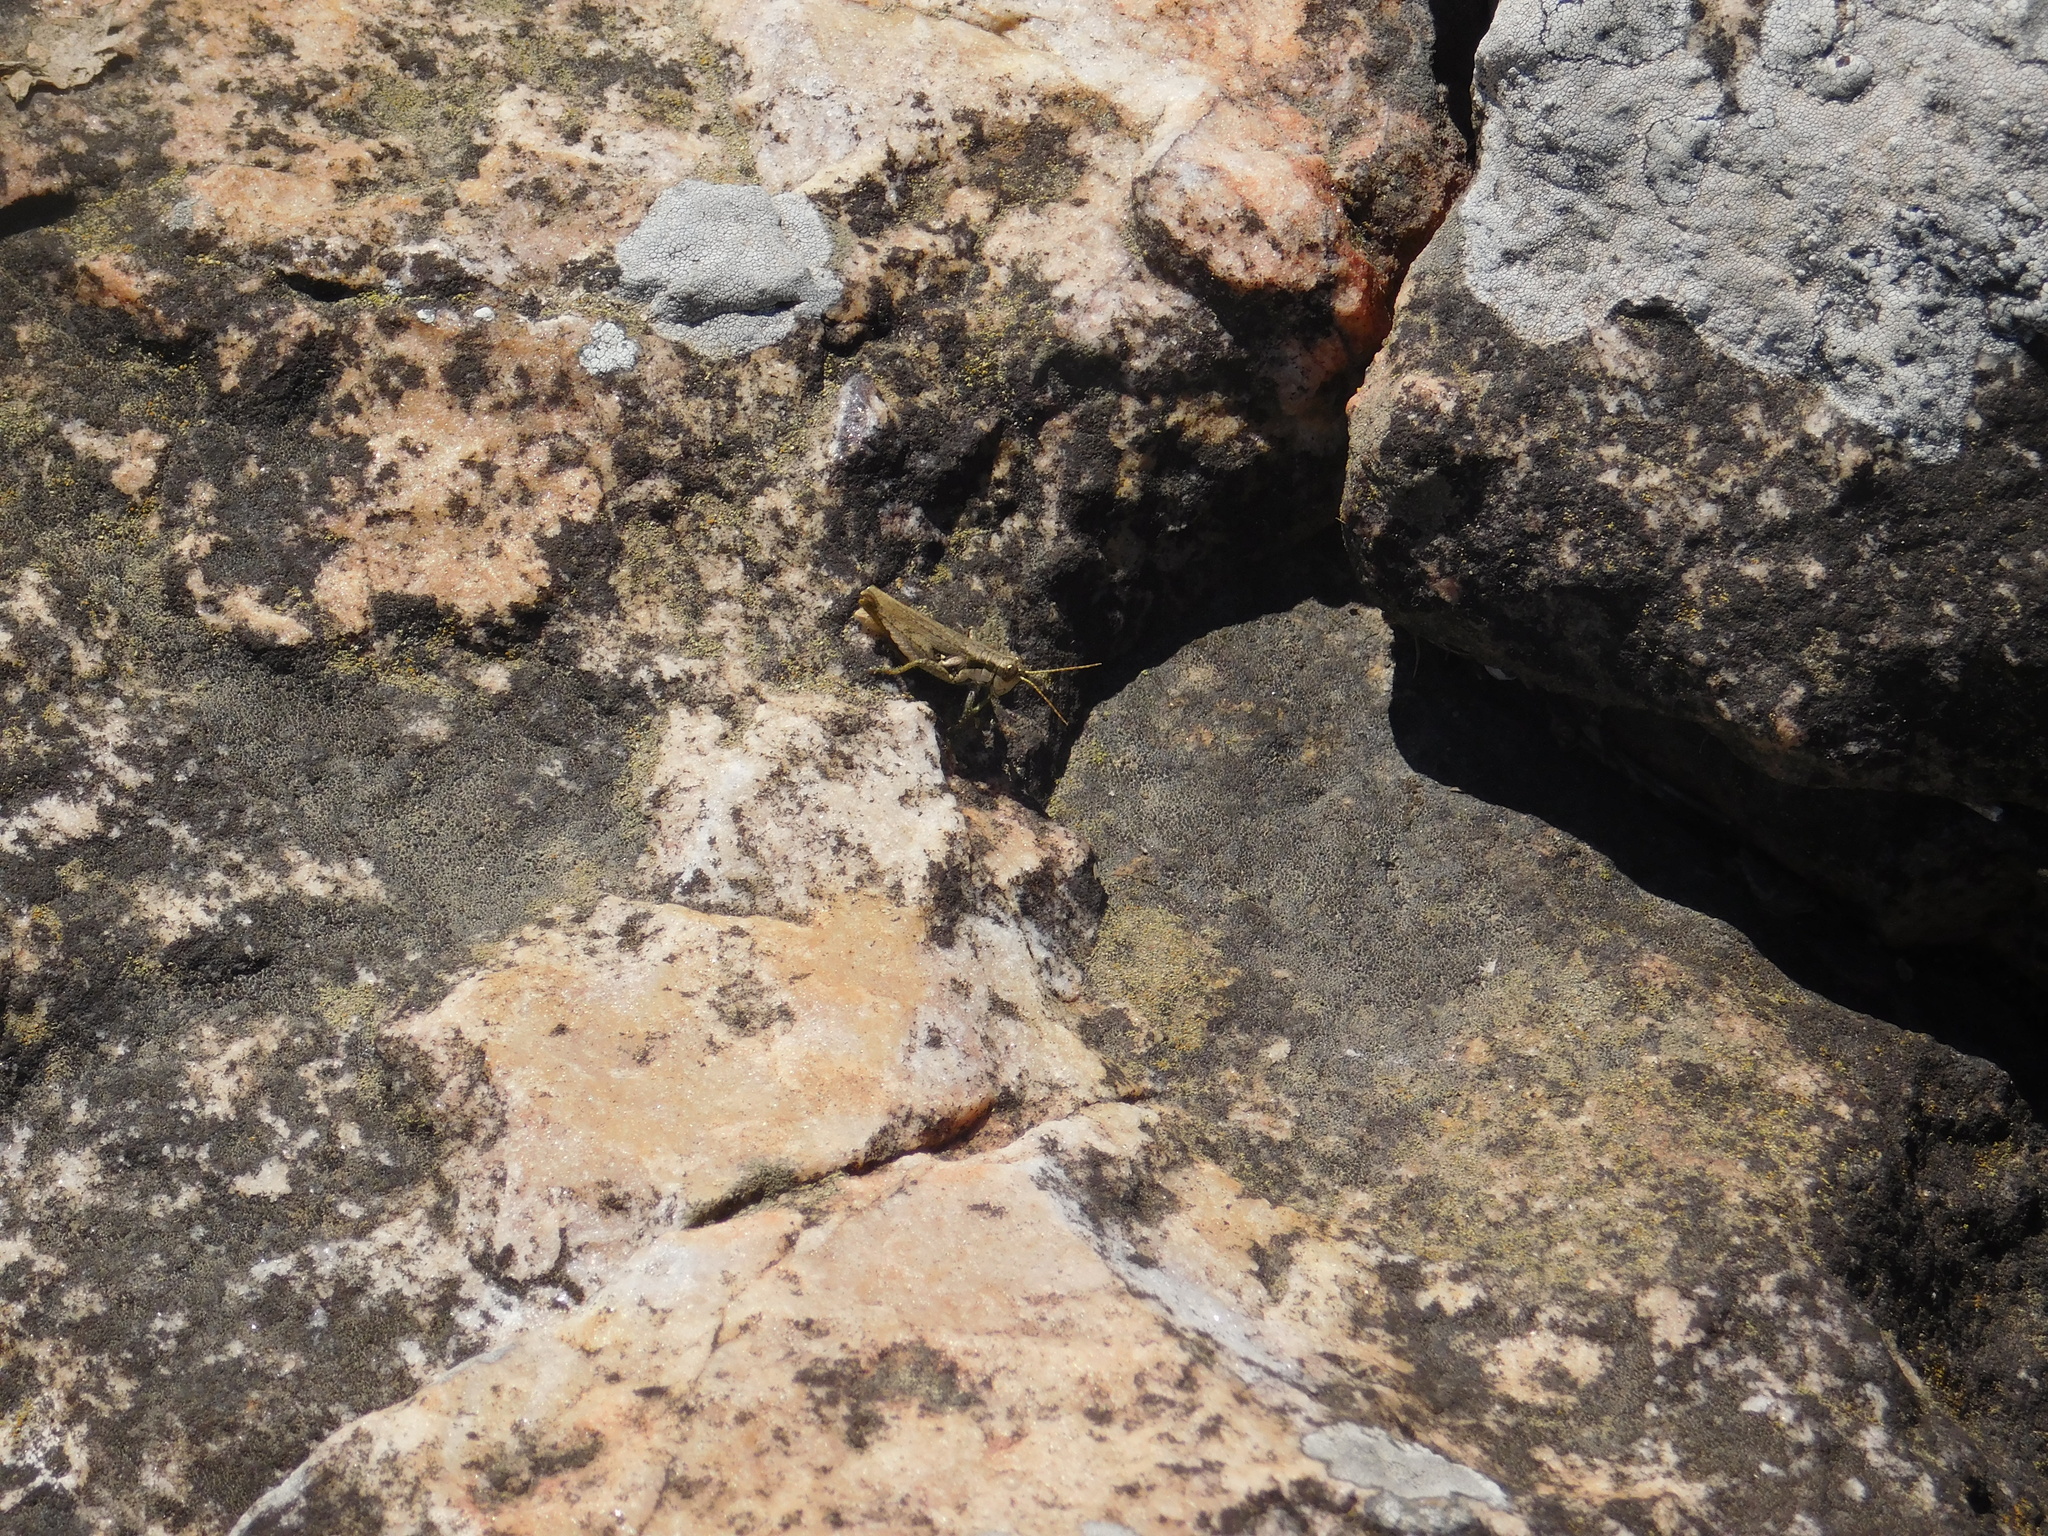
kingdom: Animalia
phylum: Arthropoda
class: Insecta
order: Orthoptera
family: Acrididae
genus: Ronderosia
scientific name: Ronderosia bergii
